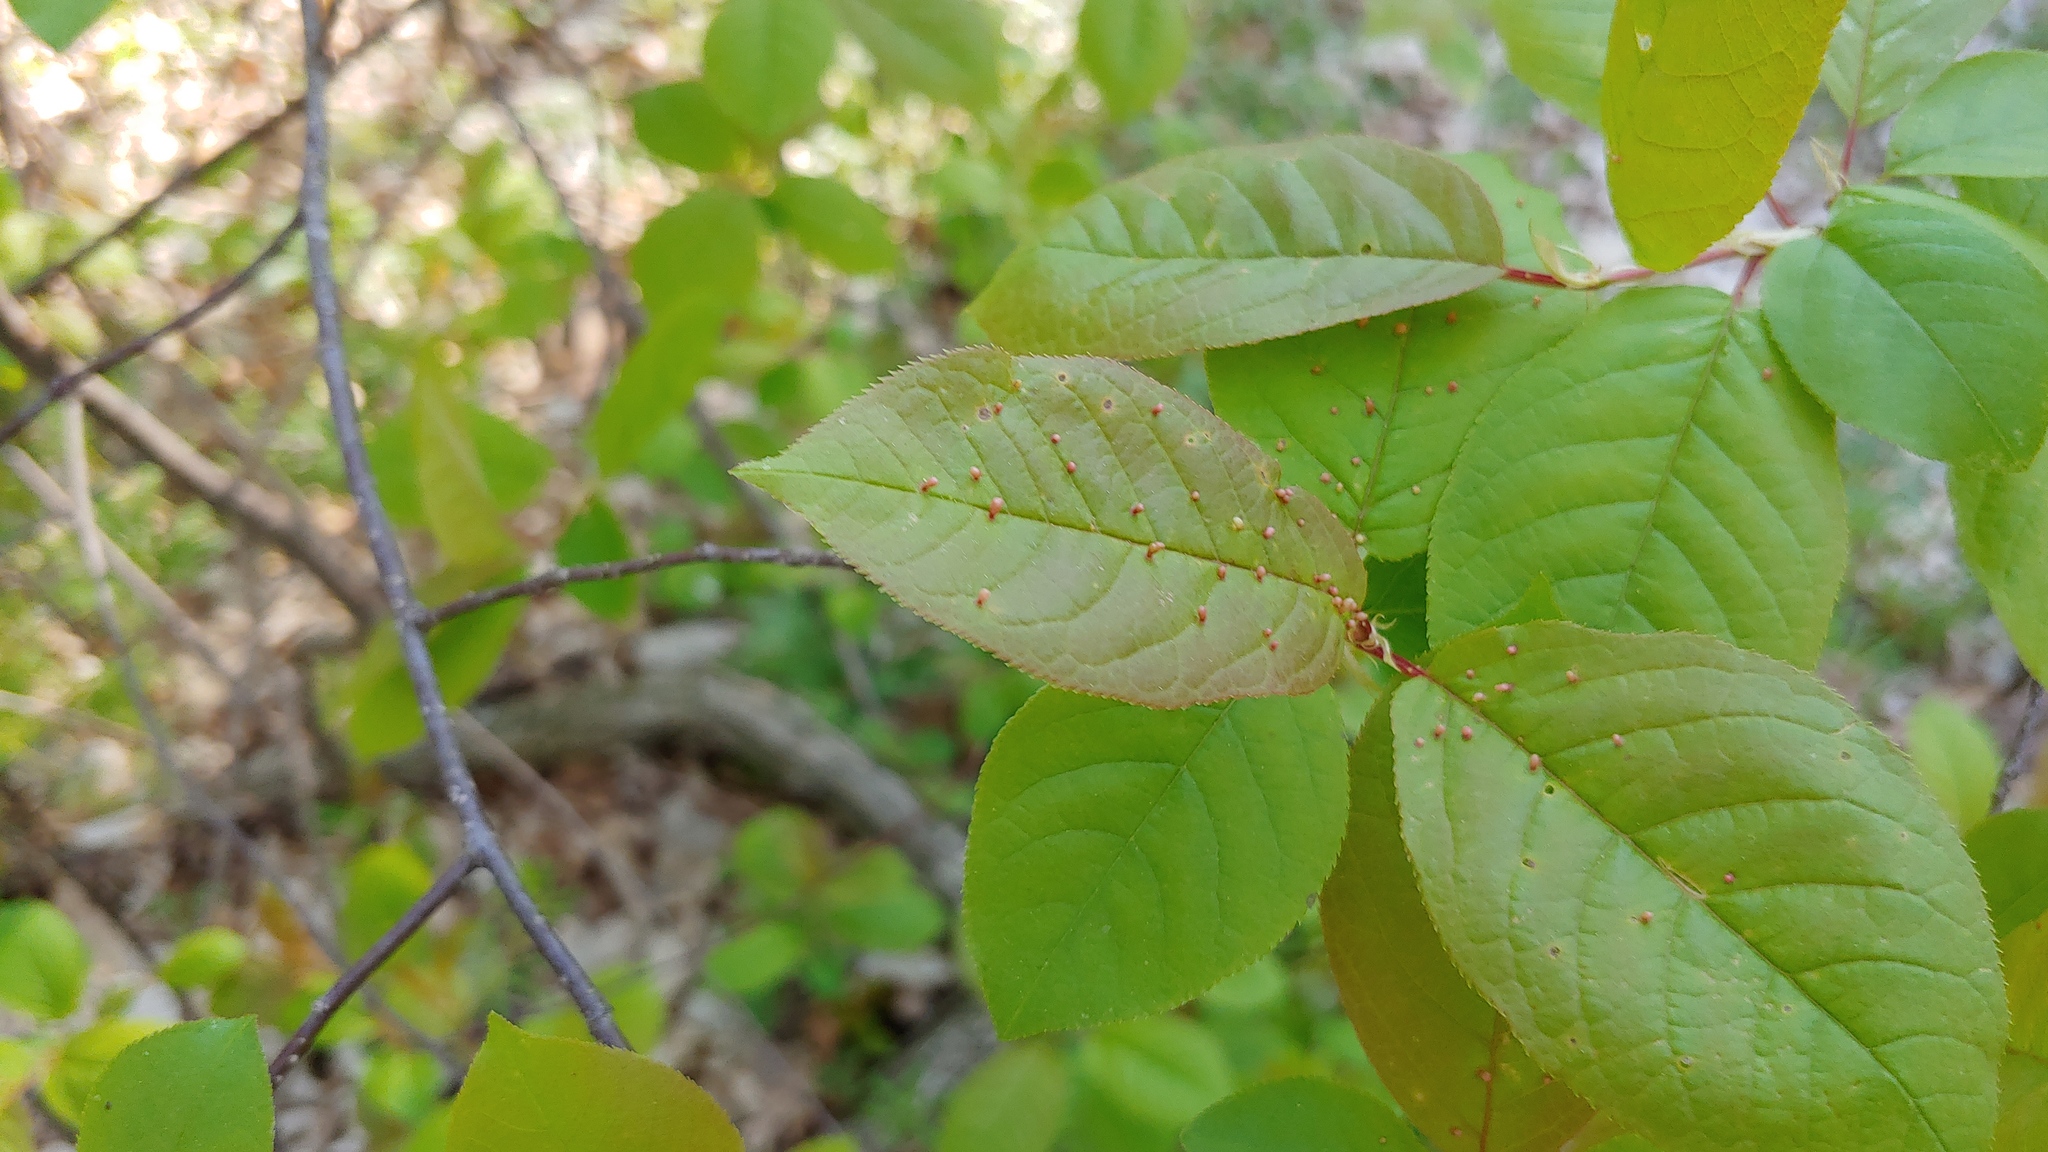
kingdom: Animalia
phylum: Arthropoda
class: Arachnida
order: Trombidiformes
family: Eriophyidae
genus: Eriophyes
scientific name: Eriophyes emarginatae
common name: Plum leaf gall mite
